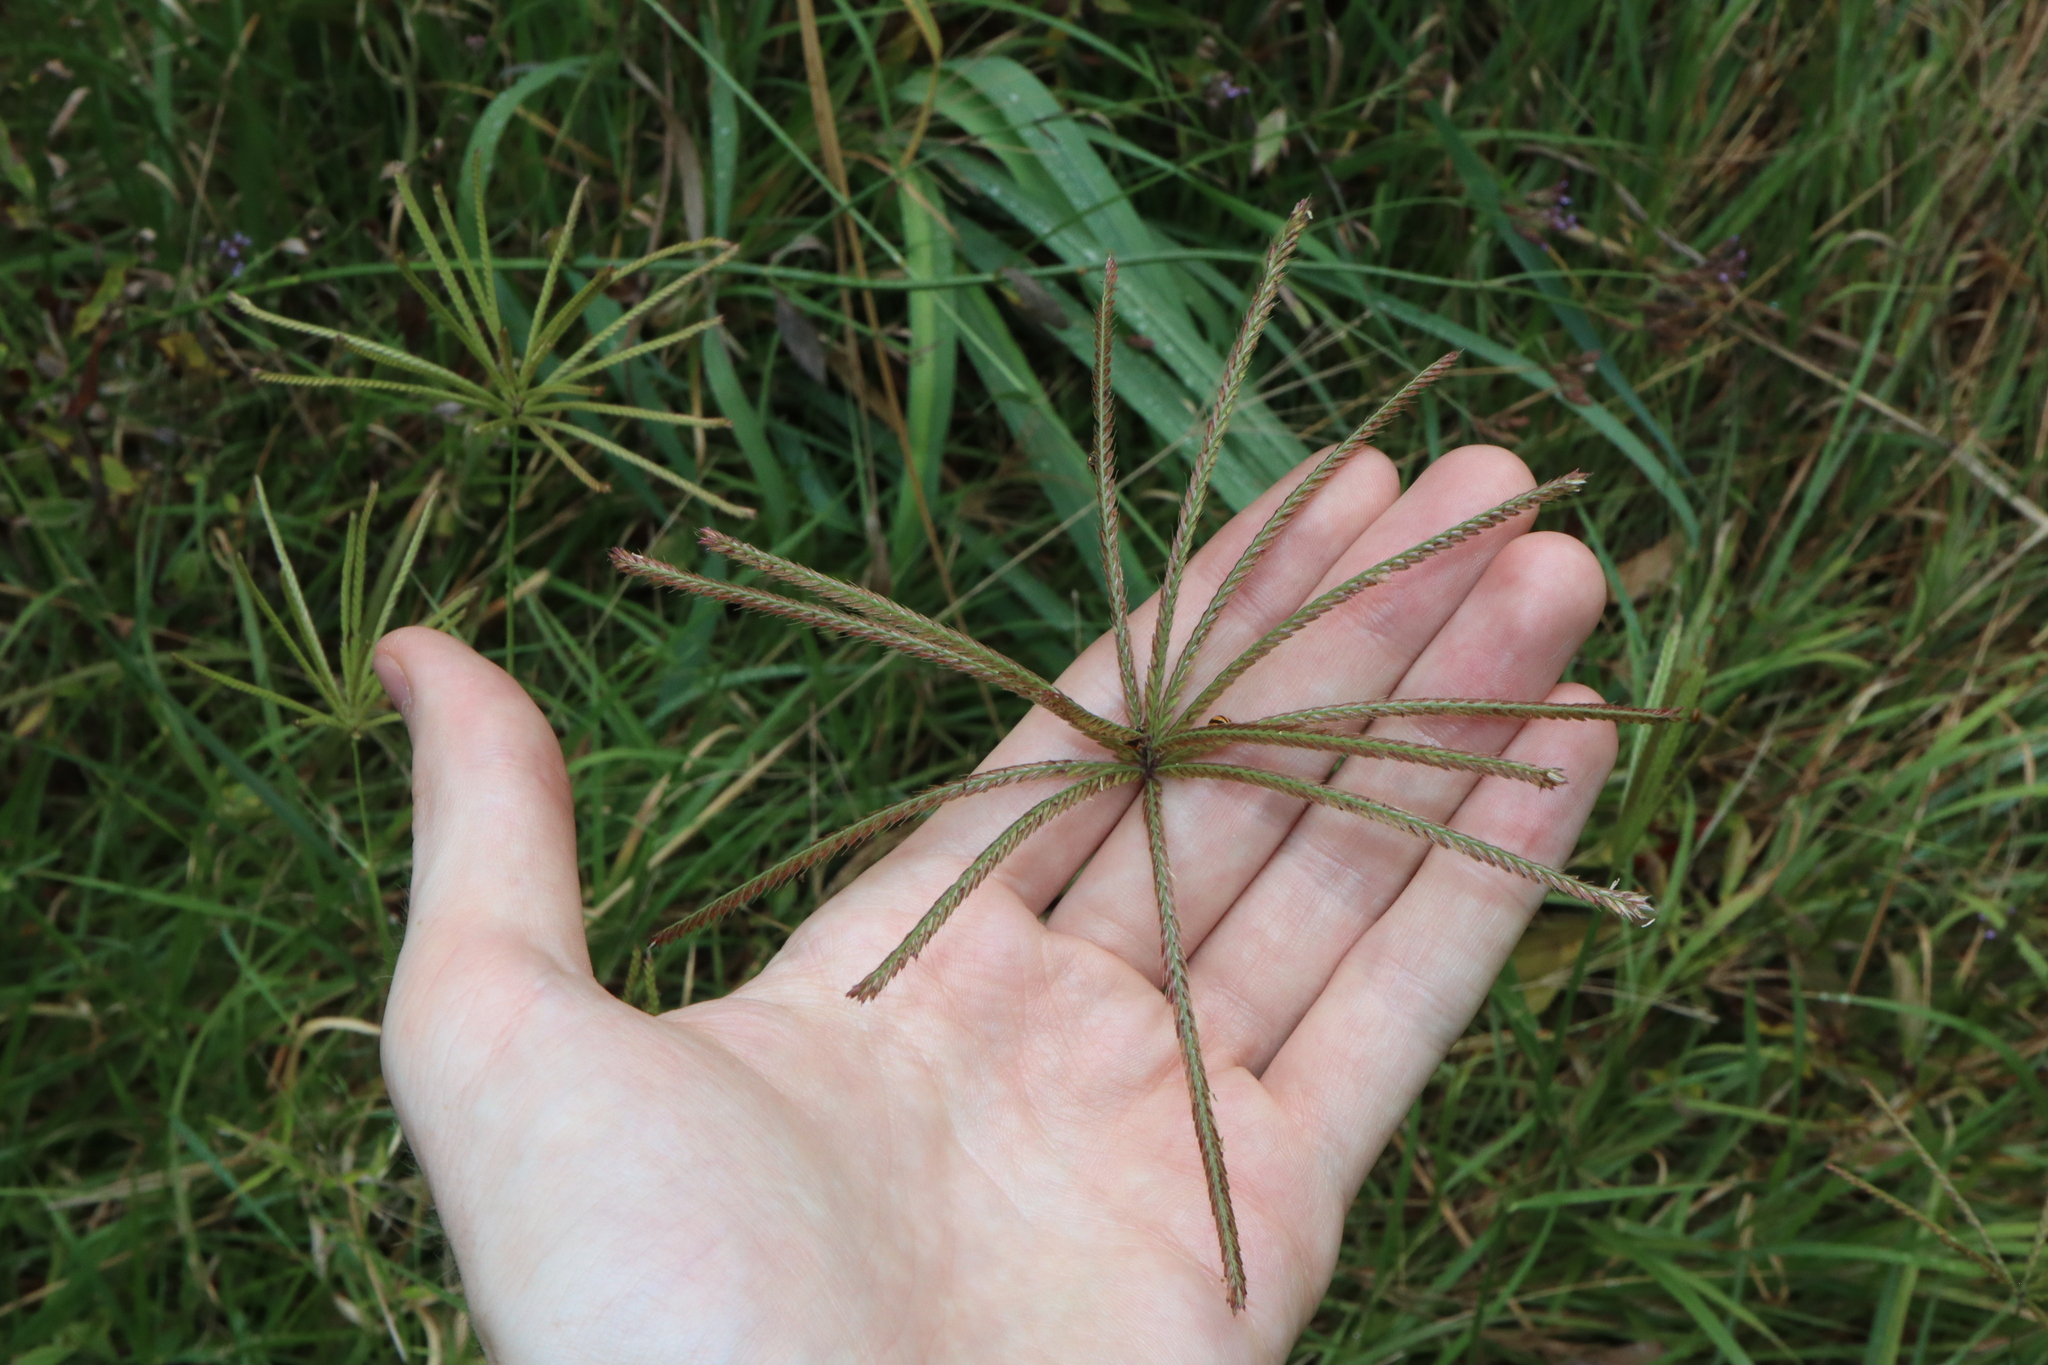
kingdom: Plantae
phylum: Tracheophyta
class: Liliopsida
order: Poales
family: Poaceae
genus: Chloris
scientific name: Chloris gayana
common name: Rhodes grass
